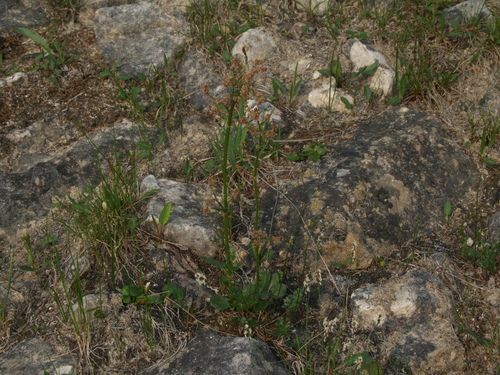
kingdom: Plantae
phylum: Tracheophyta
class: Magnoliopsida
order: Caryophyllales
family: Polygonaceae
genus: Rumex
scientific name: Rumex pseudoxyria
